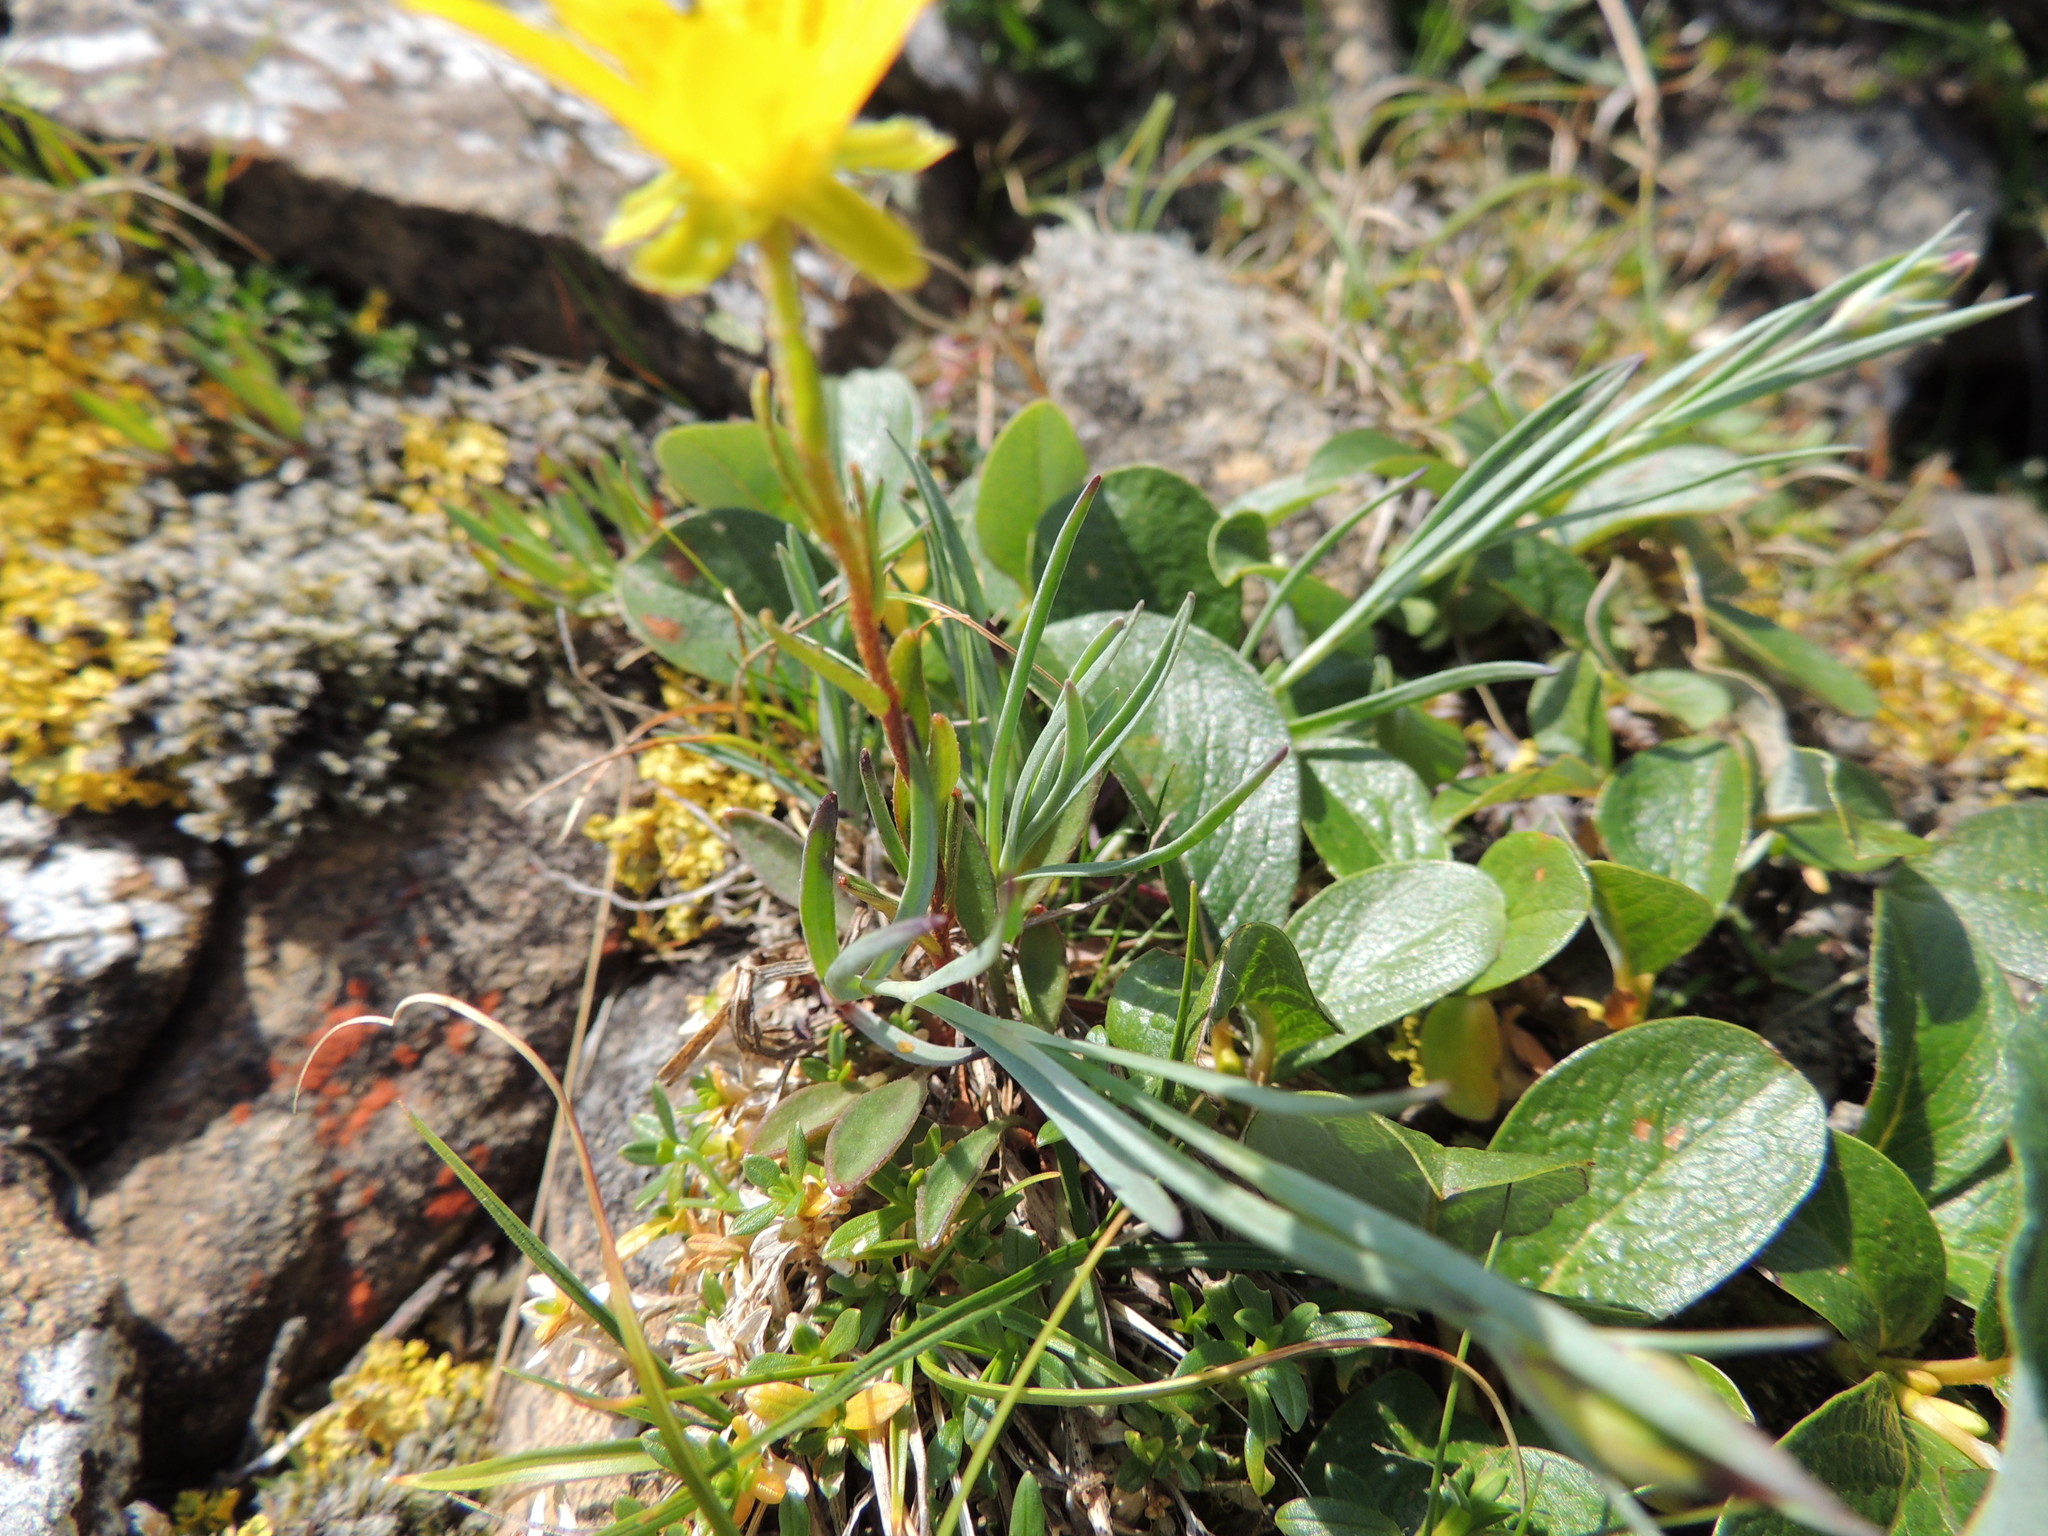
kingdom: Plantae
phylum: Tracheophyta
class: Magnoliopsida
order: Saxifragales
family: Saxifragaceae
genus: Saxifraga
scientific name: Saxifraga hirculus
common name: Yellow marsh saxifrage
